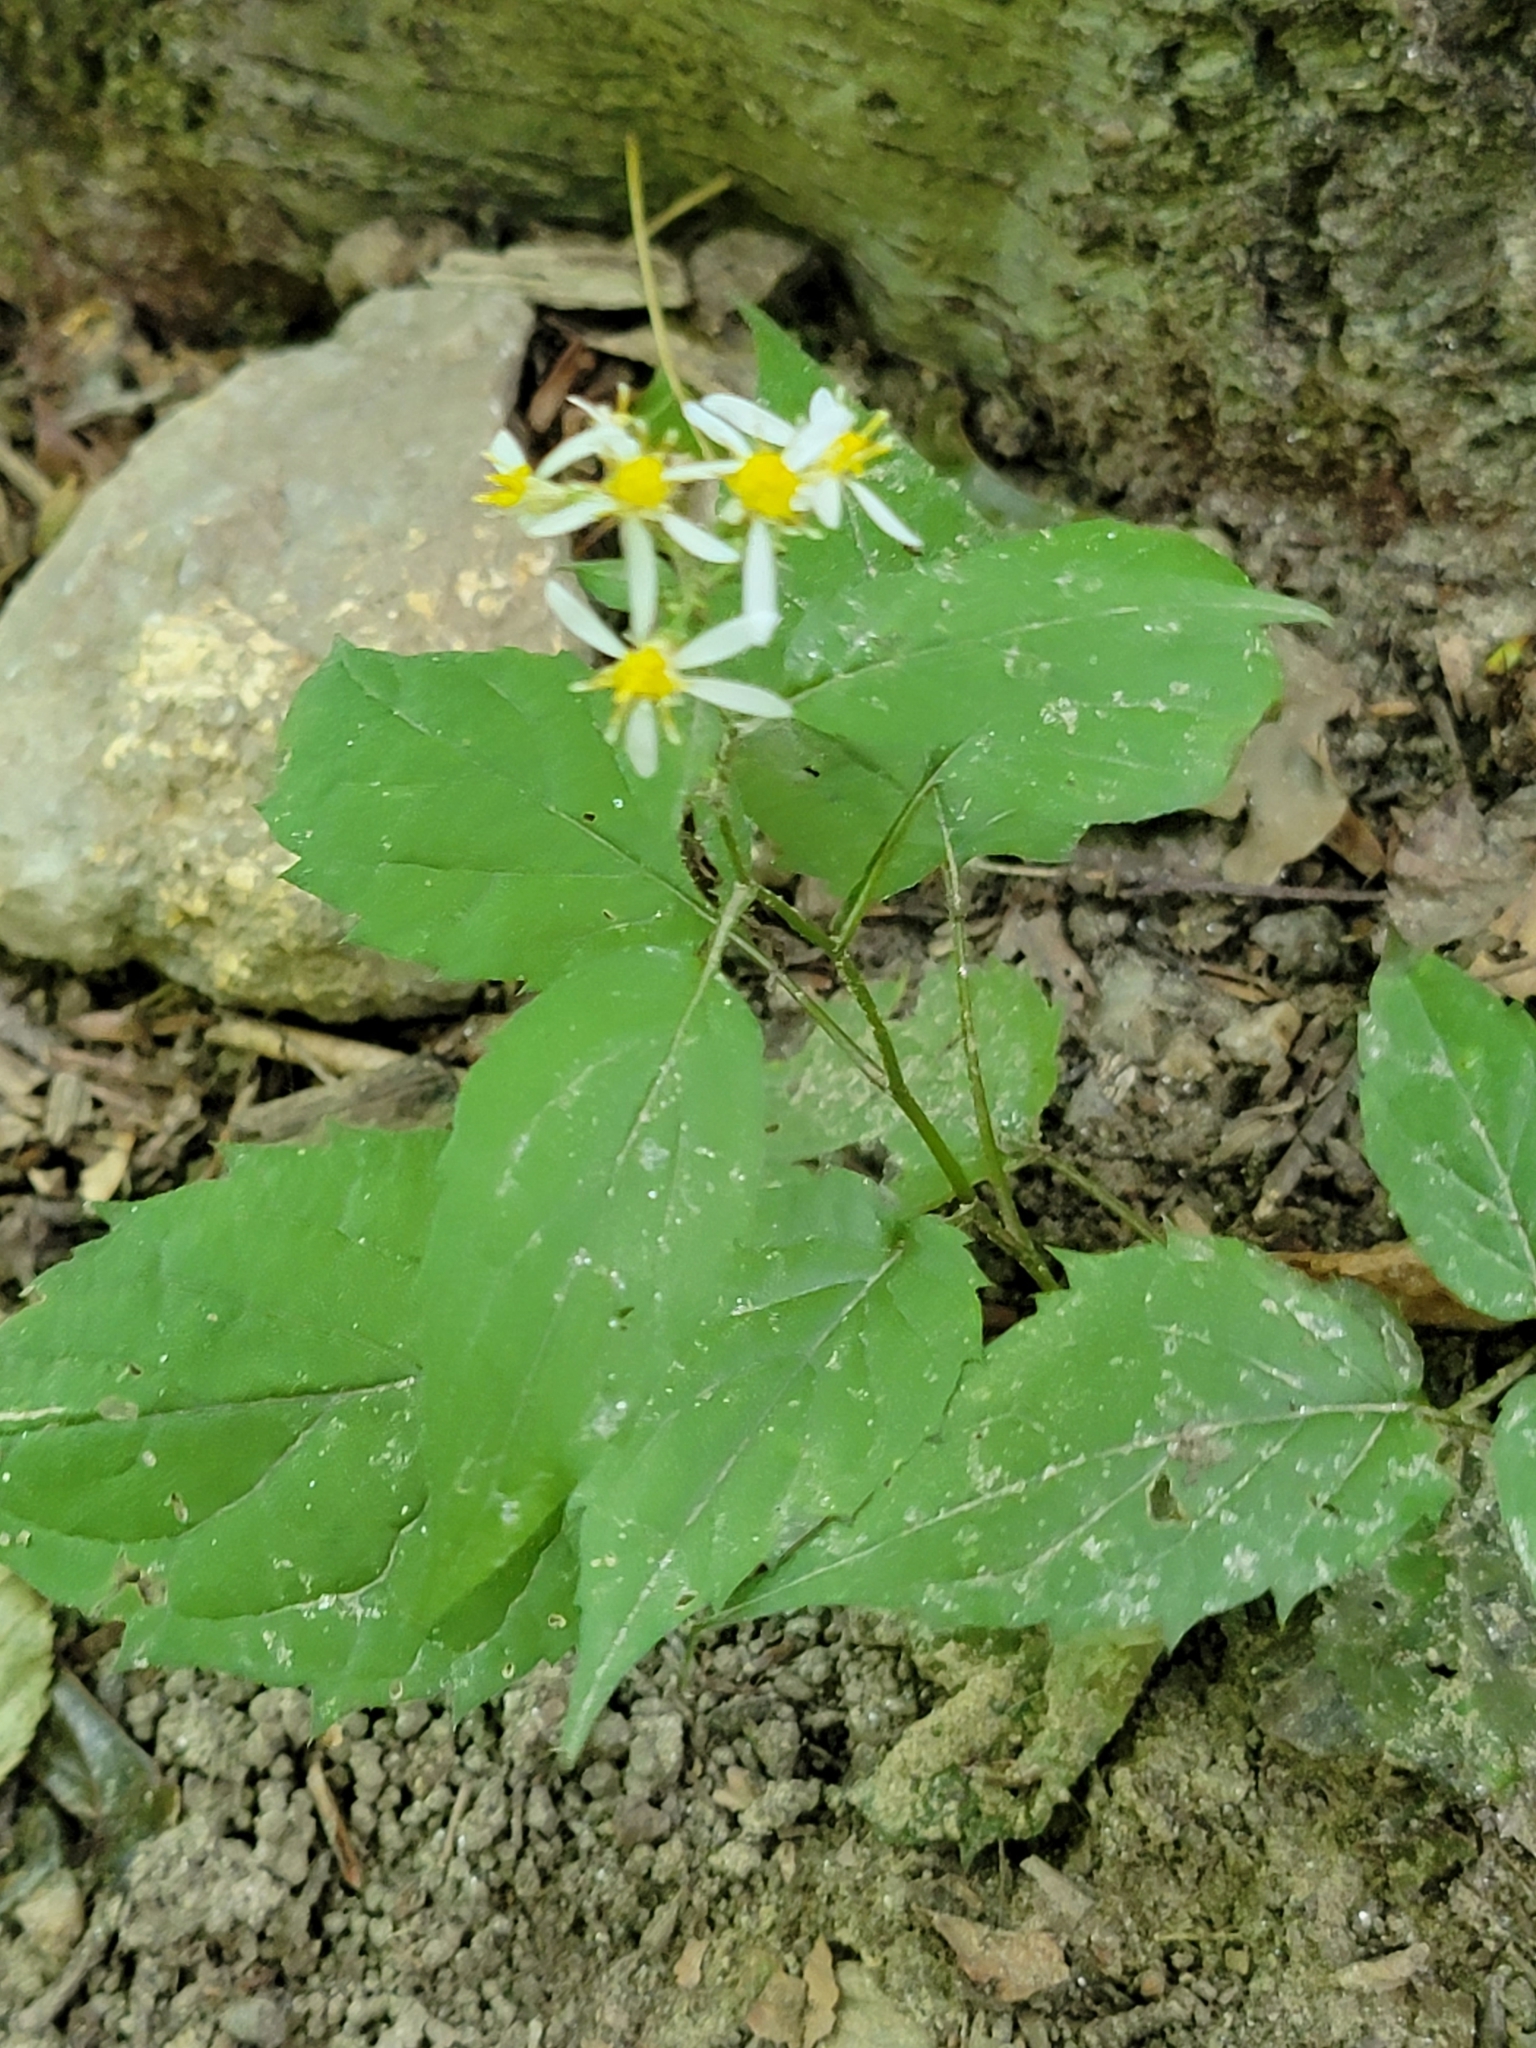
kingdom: Plantae
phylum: Tracheophyta
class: Magnoliopsida
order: Asterales
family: Asteraceae
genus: Eurybia
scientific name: Eurybia divaricata
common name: White wood aster
